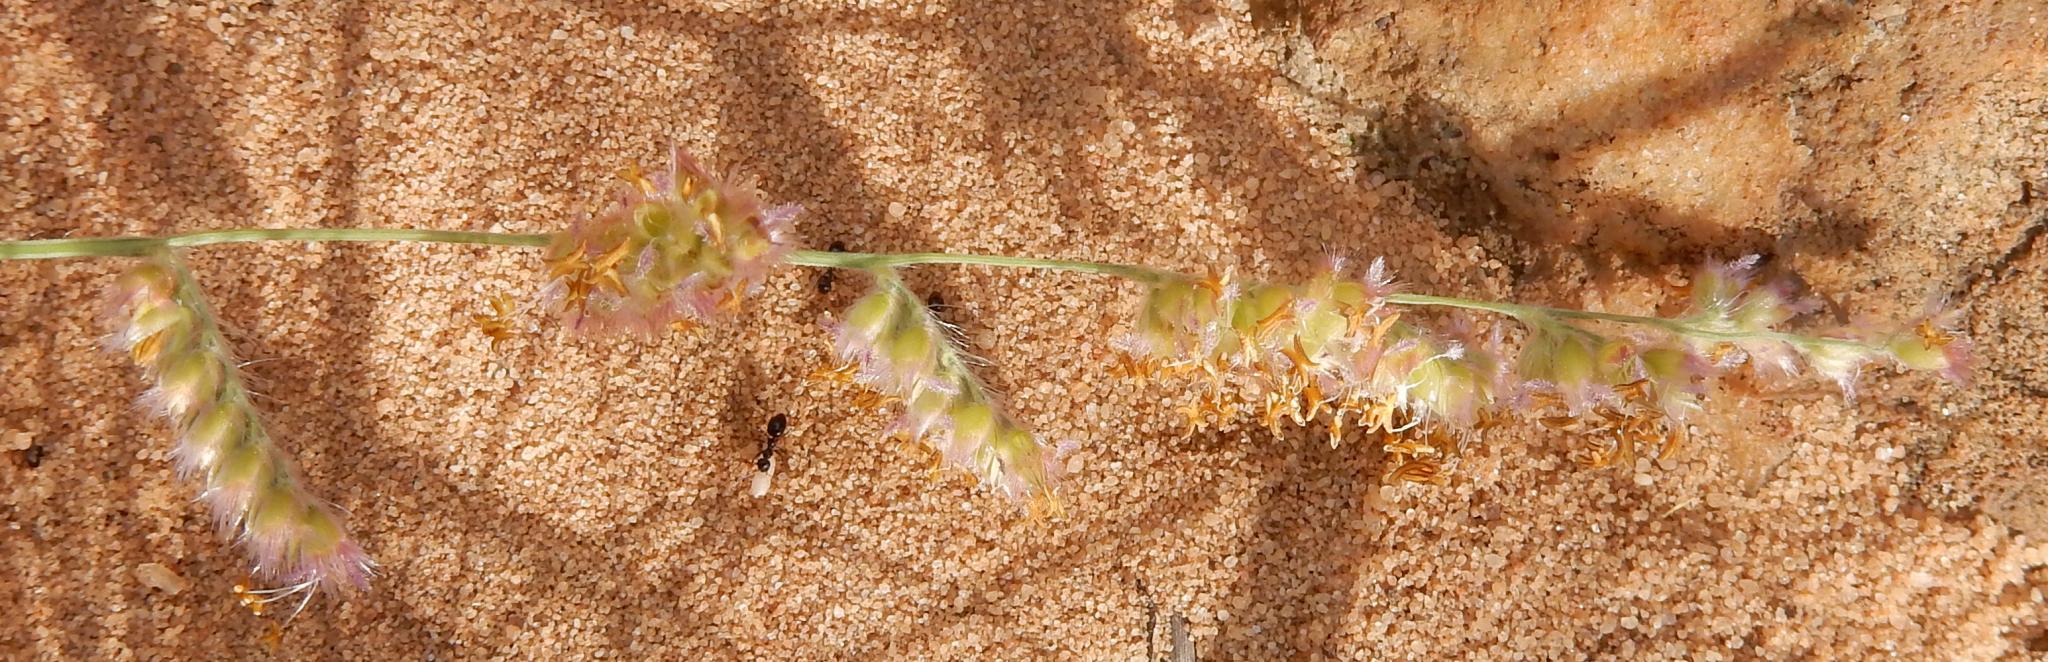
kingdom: Plantae
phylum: Tracheophyta
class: Liliopsida
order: Poales
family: Poaceae
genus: Urochloa
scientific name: Urochloa serrata
